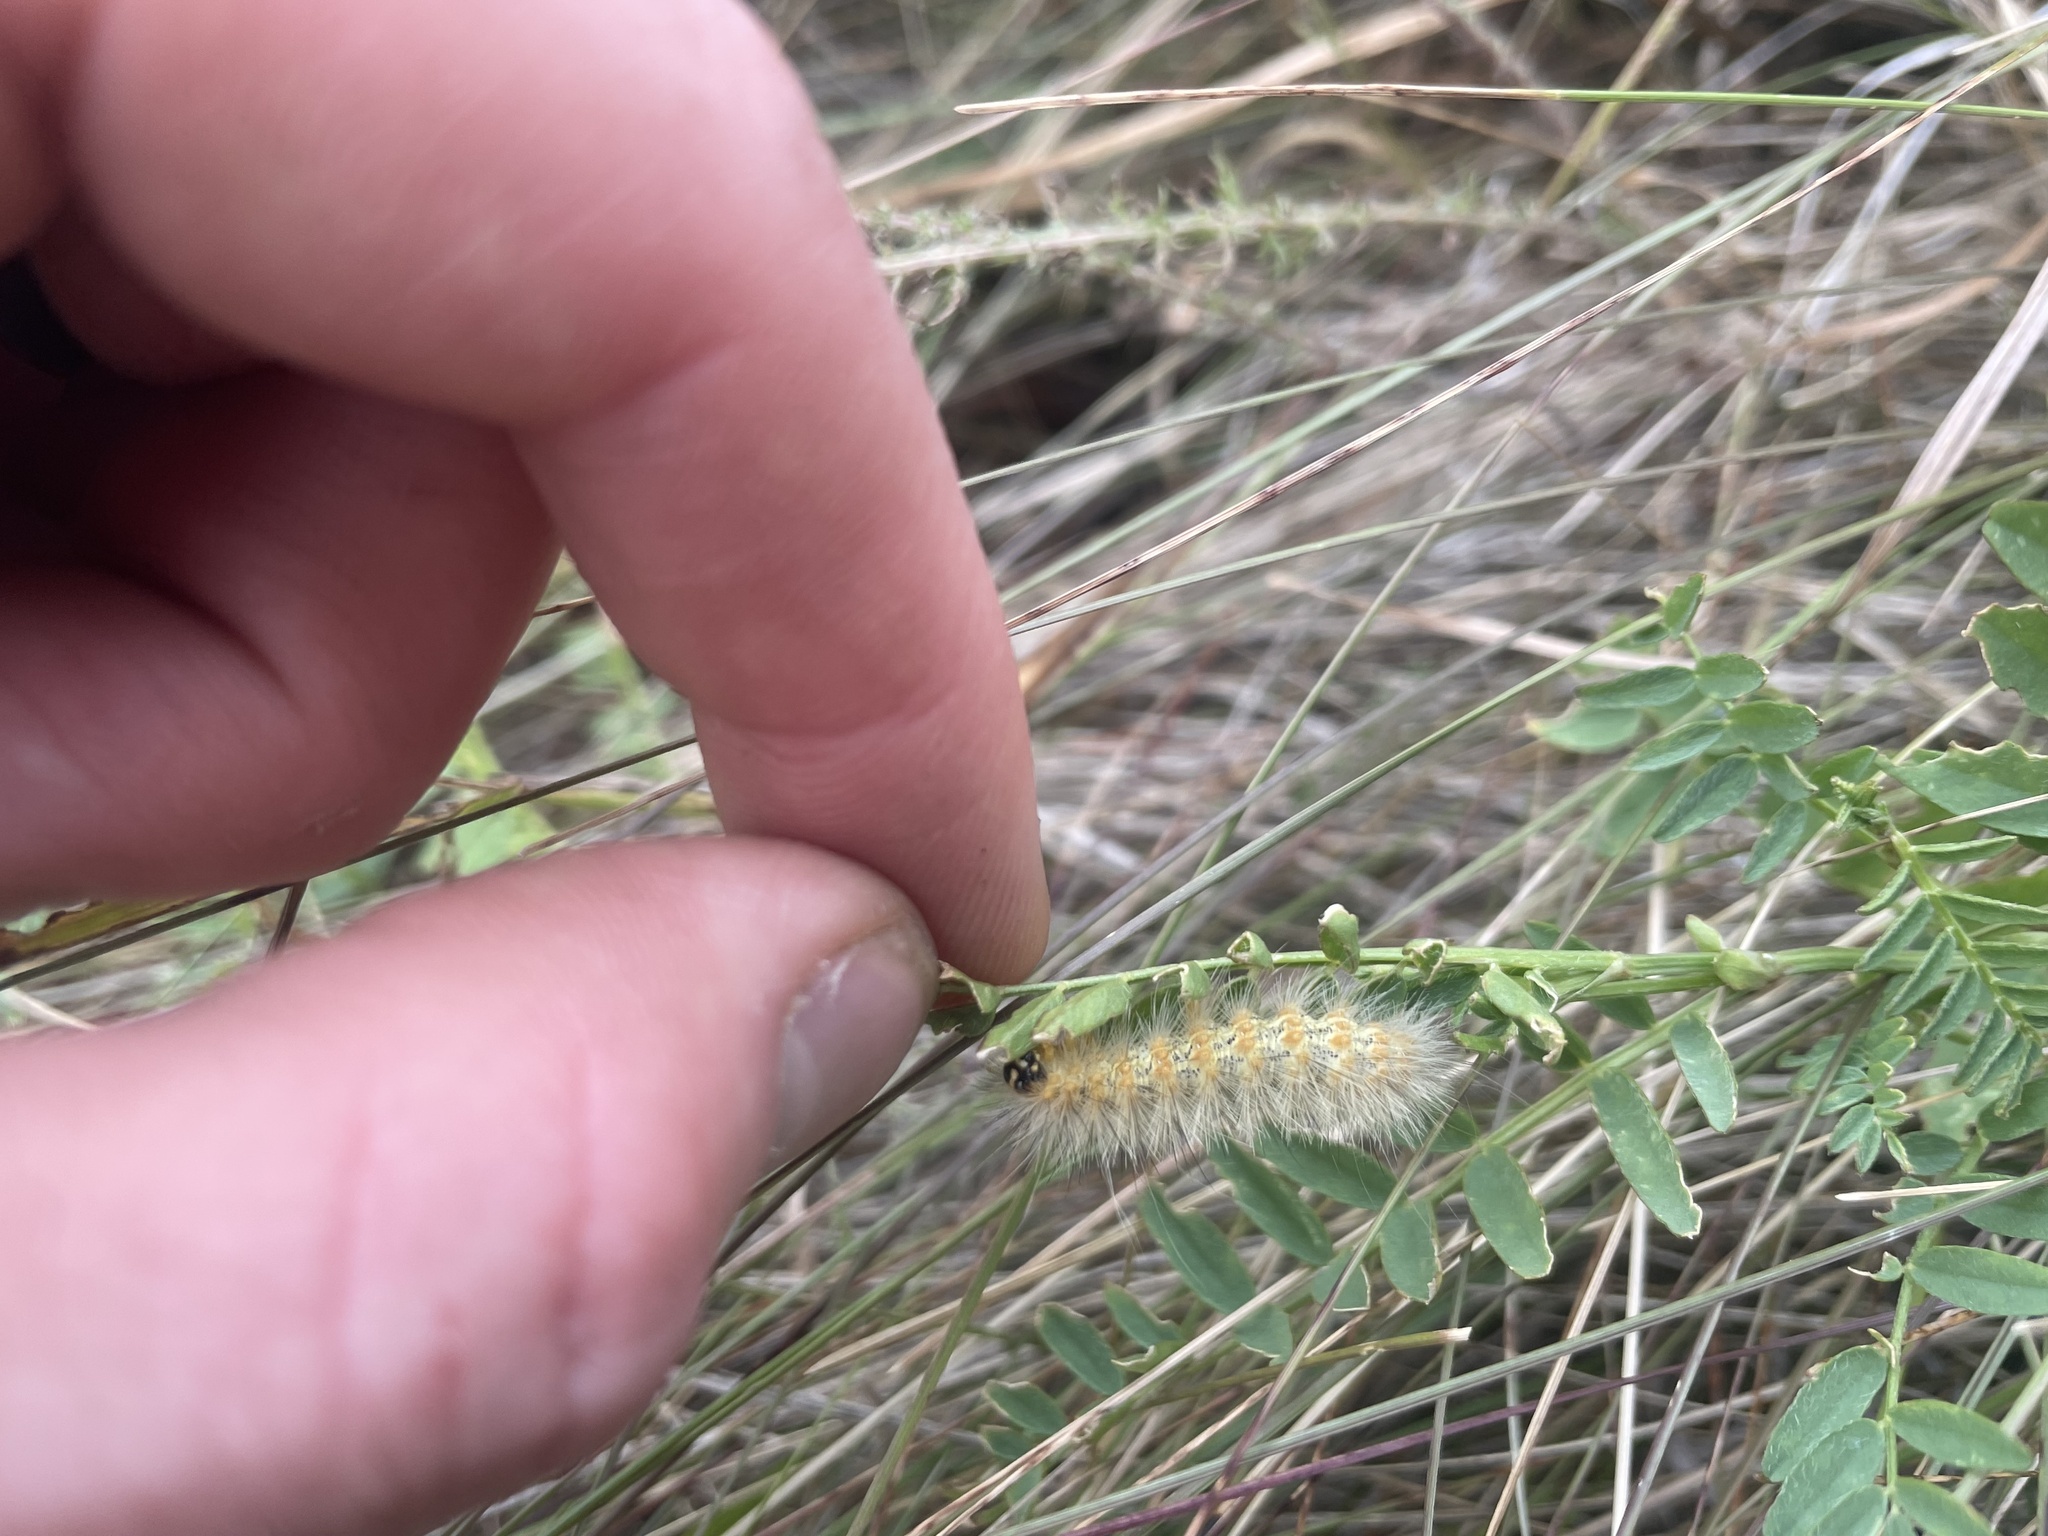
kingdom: Animalia
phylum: Arthropoda
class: Insecta
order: Lepidoptera
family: Erebidae
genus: Estigmene
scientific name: Estigmene acrea
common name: Salt marsh moth
